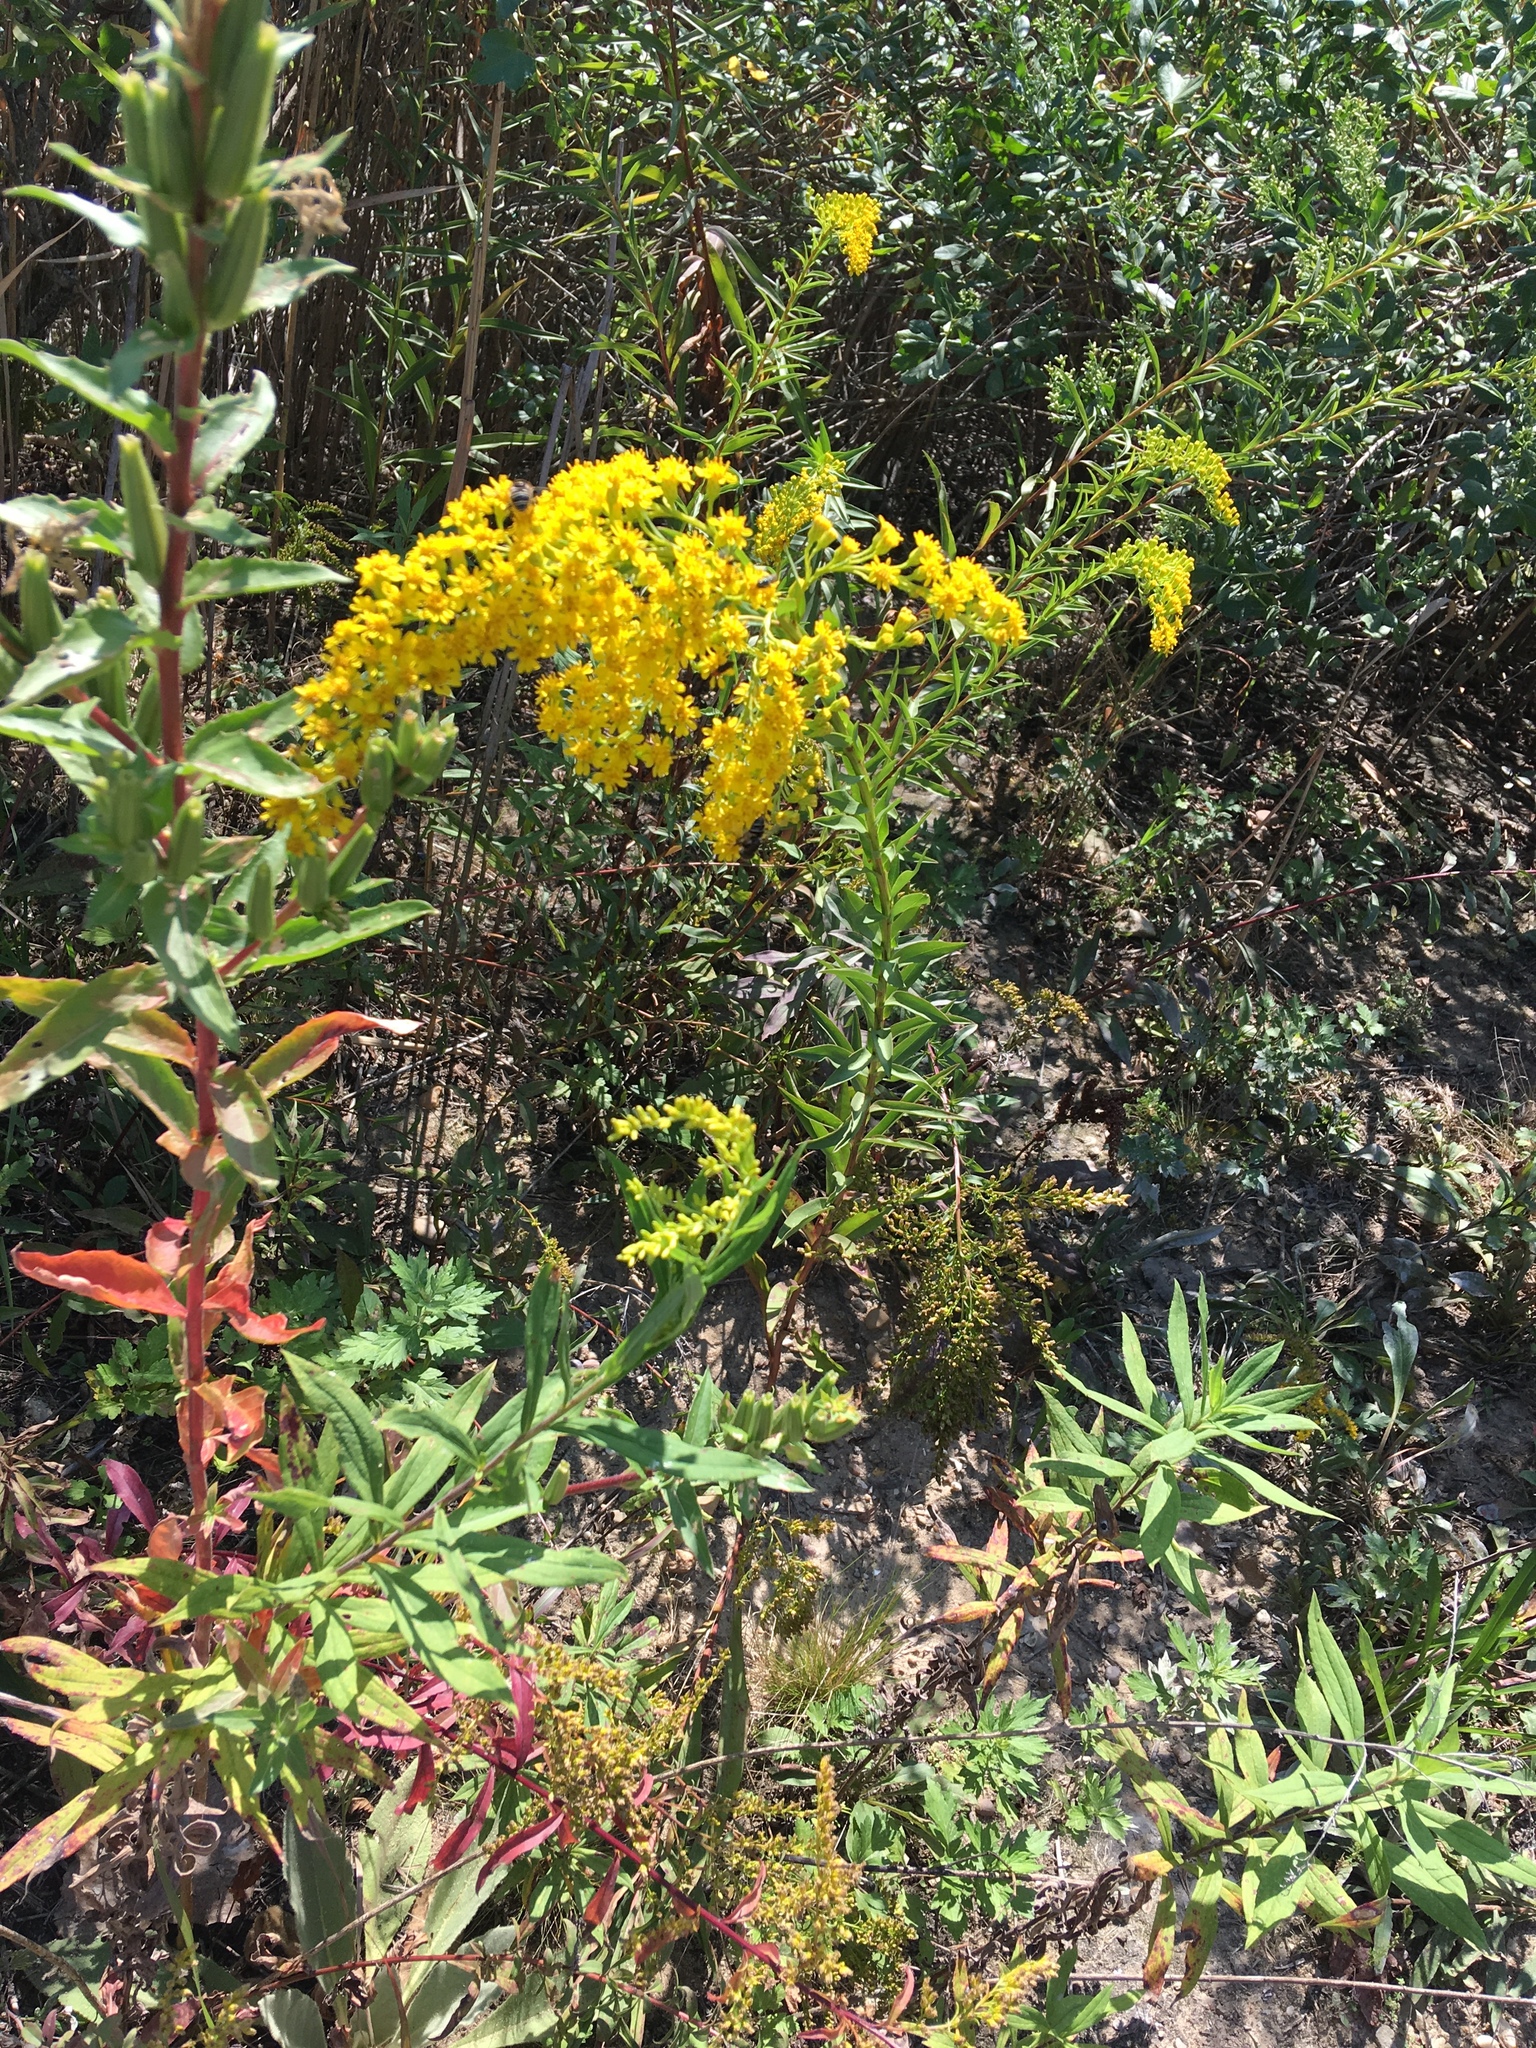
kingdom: Plantae
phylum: Tracheophyta
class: Magnoliopsida
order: Asterales
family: Asteraceae
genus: Solidago
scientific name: Solidago sempervirens
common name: Salt-marsh goldenrod
